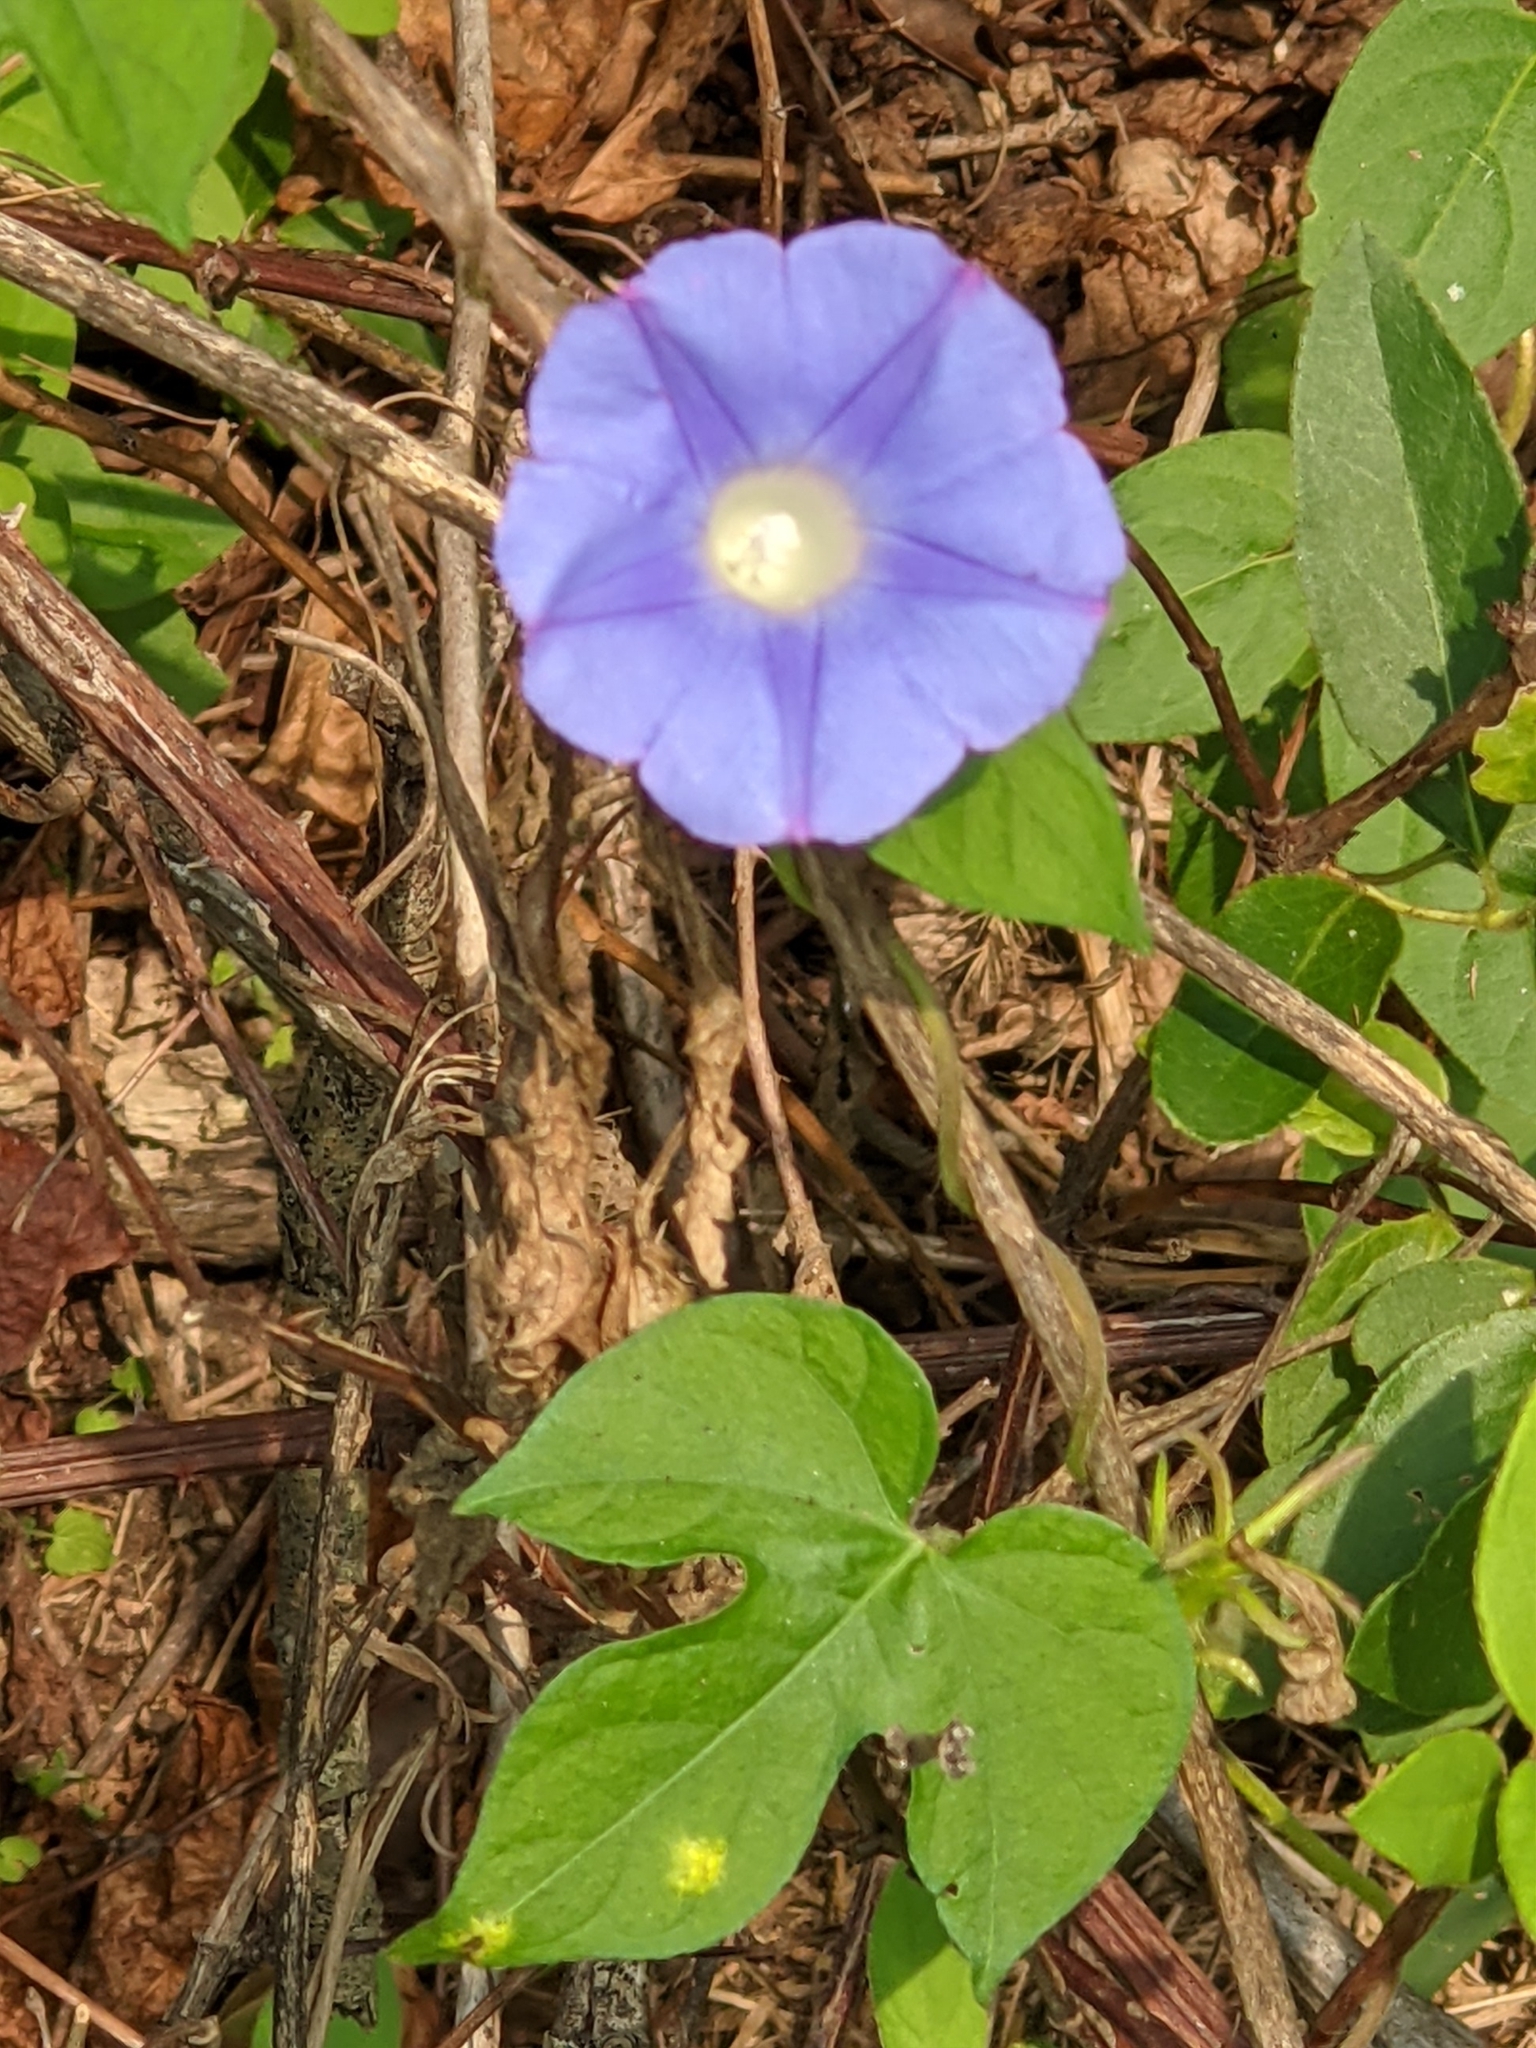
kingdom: Plantae
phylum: Tracheophyta
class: Magnoliopsida
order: Solanales
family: Convolvulaceae
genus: Ipomoea
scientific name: Ipomoea hederacea
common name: Ivy-leaved morning-glory
